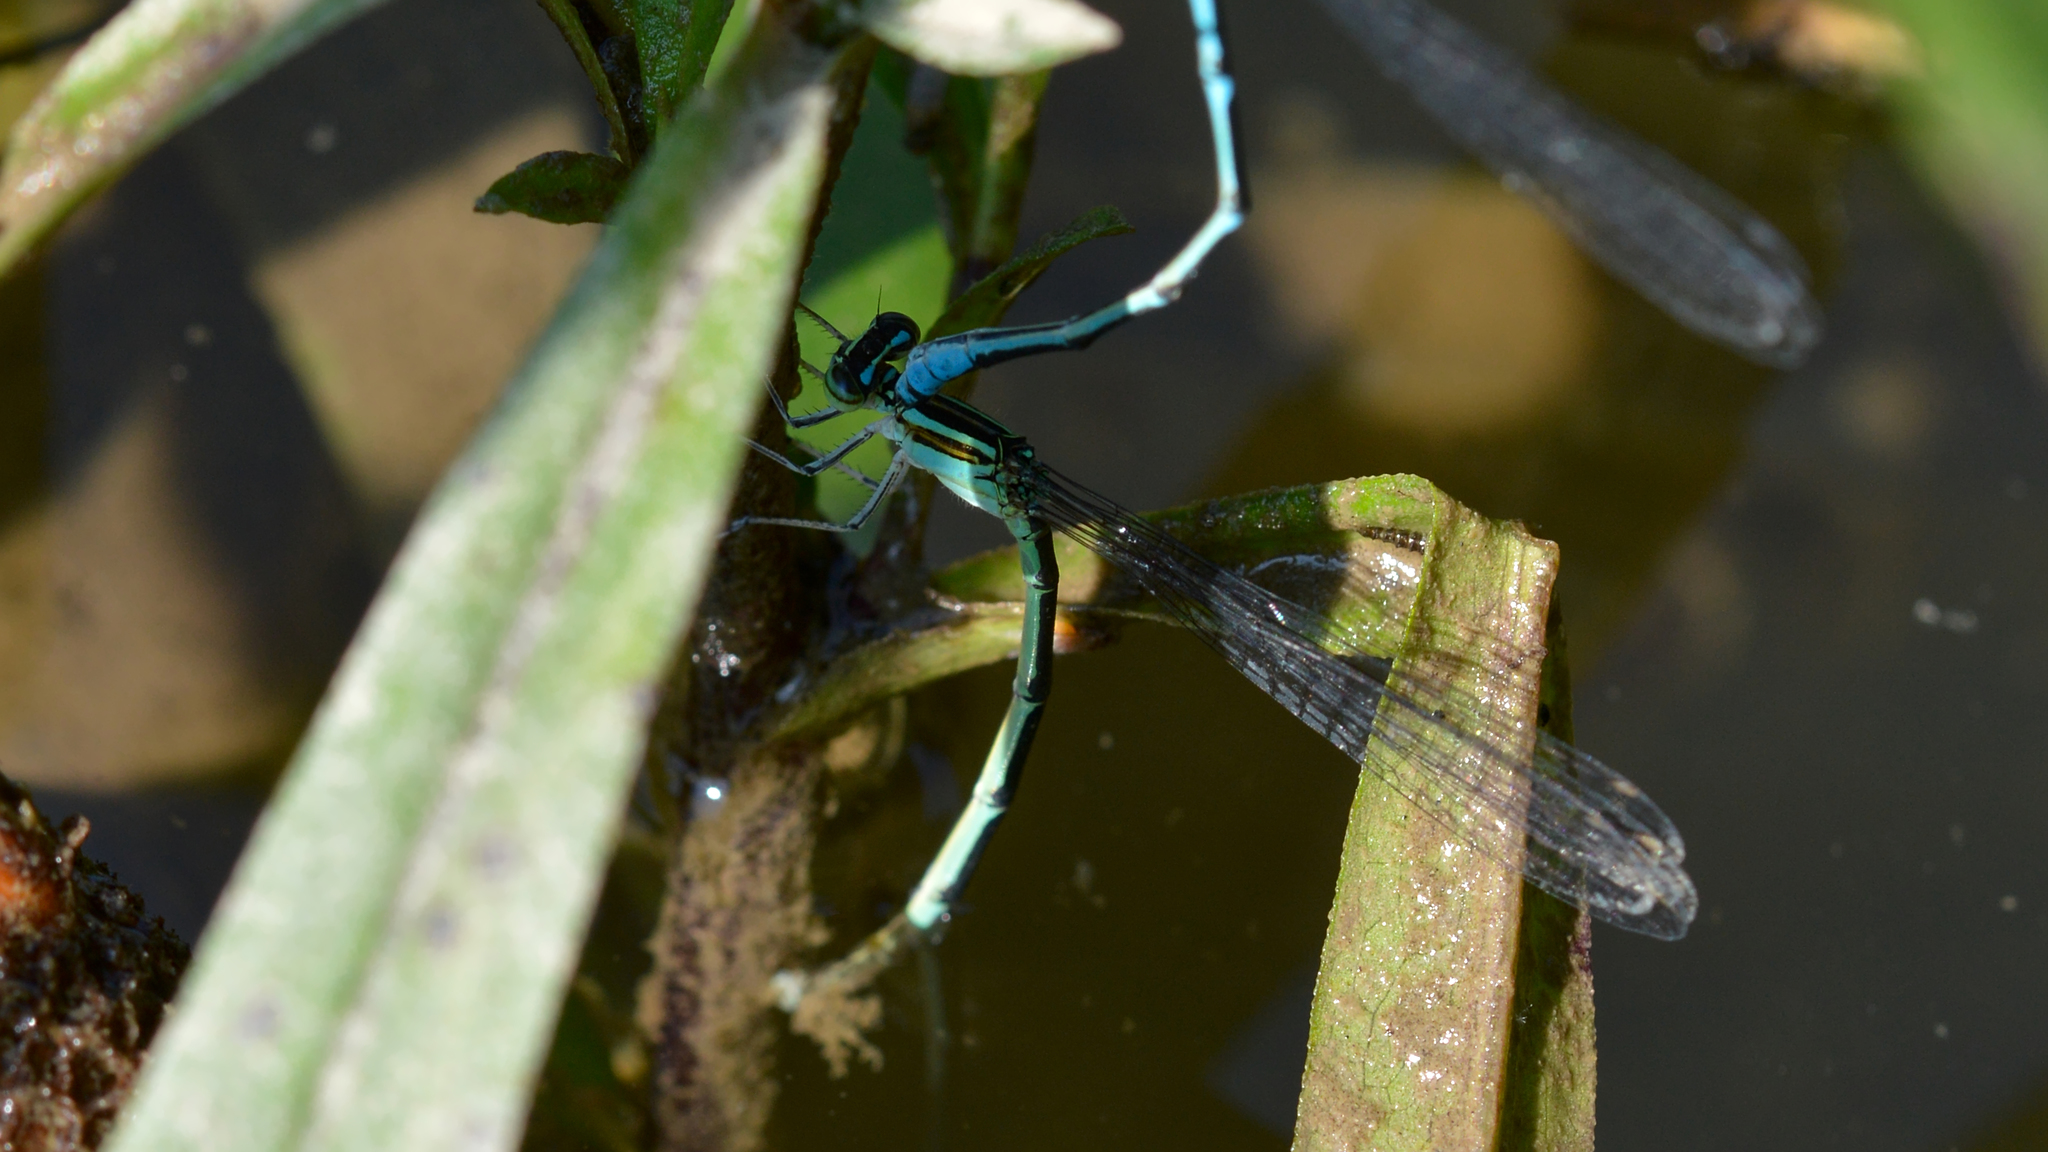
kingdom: Animalia
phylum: Arthropoda
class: Insecta
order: Odonata
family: Coenagrionidae
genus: Enallagma
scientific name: Enallagma exsulans
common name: Stream bluet
